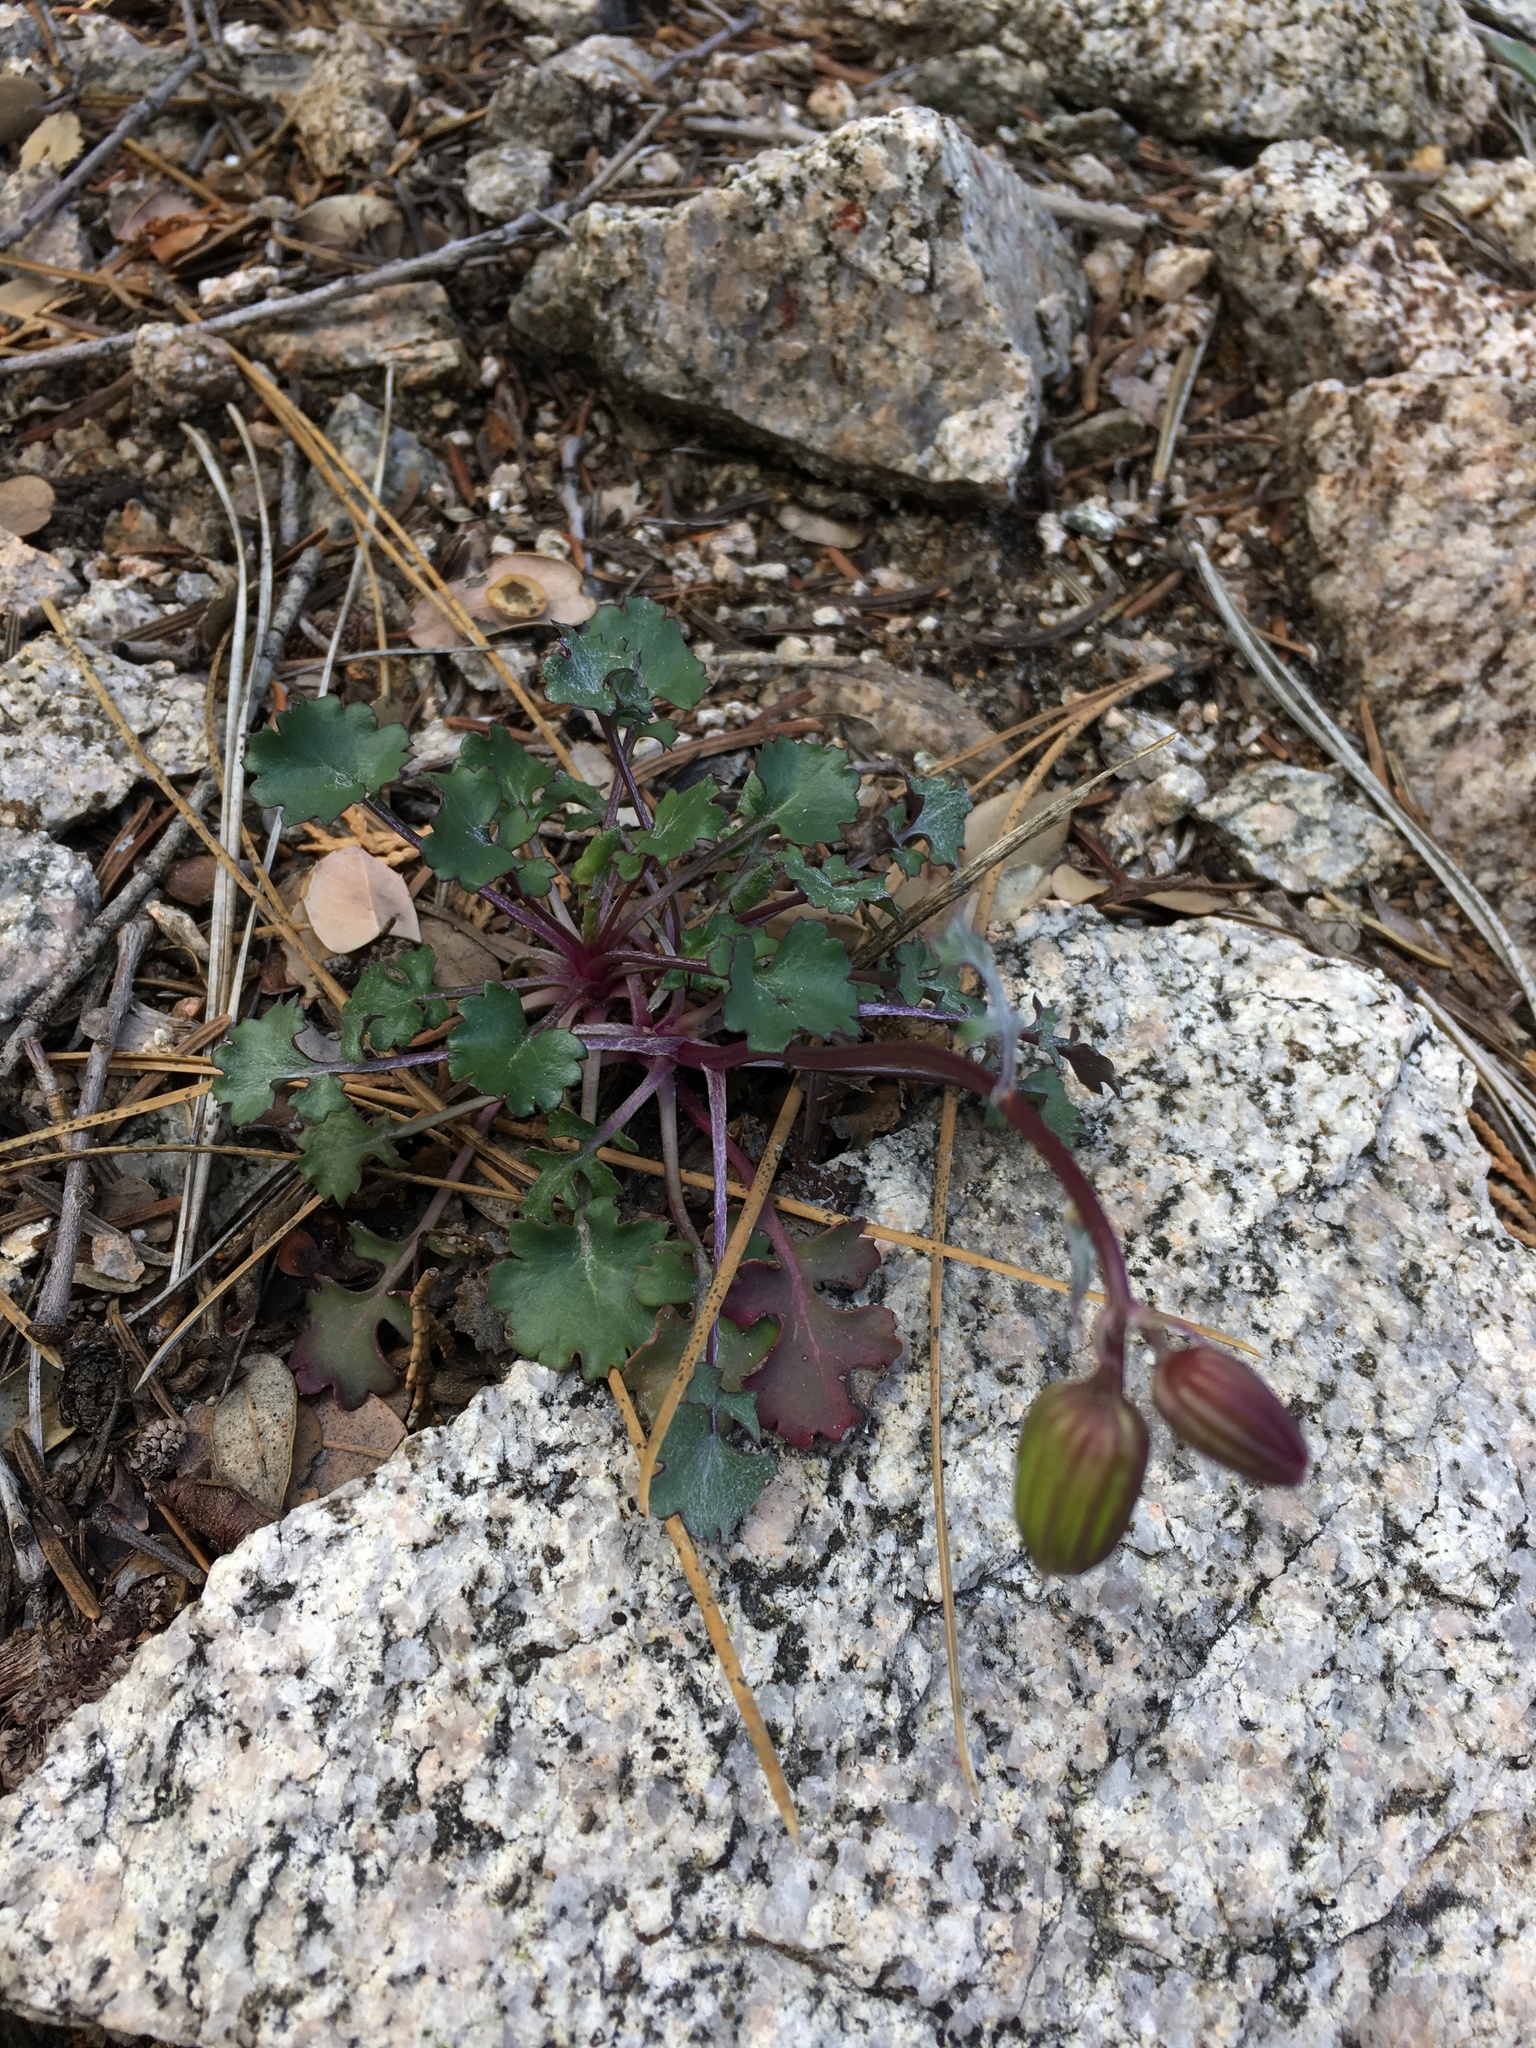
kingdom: Plantae
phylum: Tracheophyta
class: Magnoliopsida
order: Asterales
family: Asteraceae
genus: Packera
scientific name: Packera ionophylla
